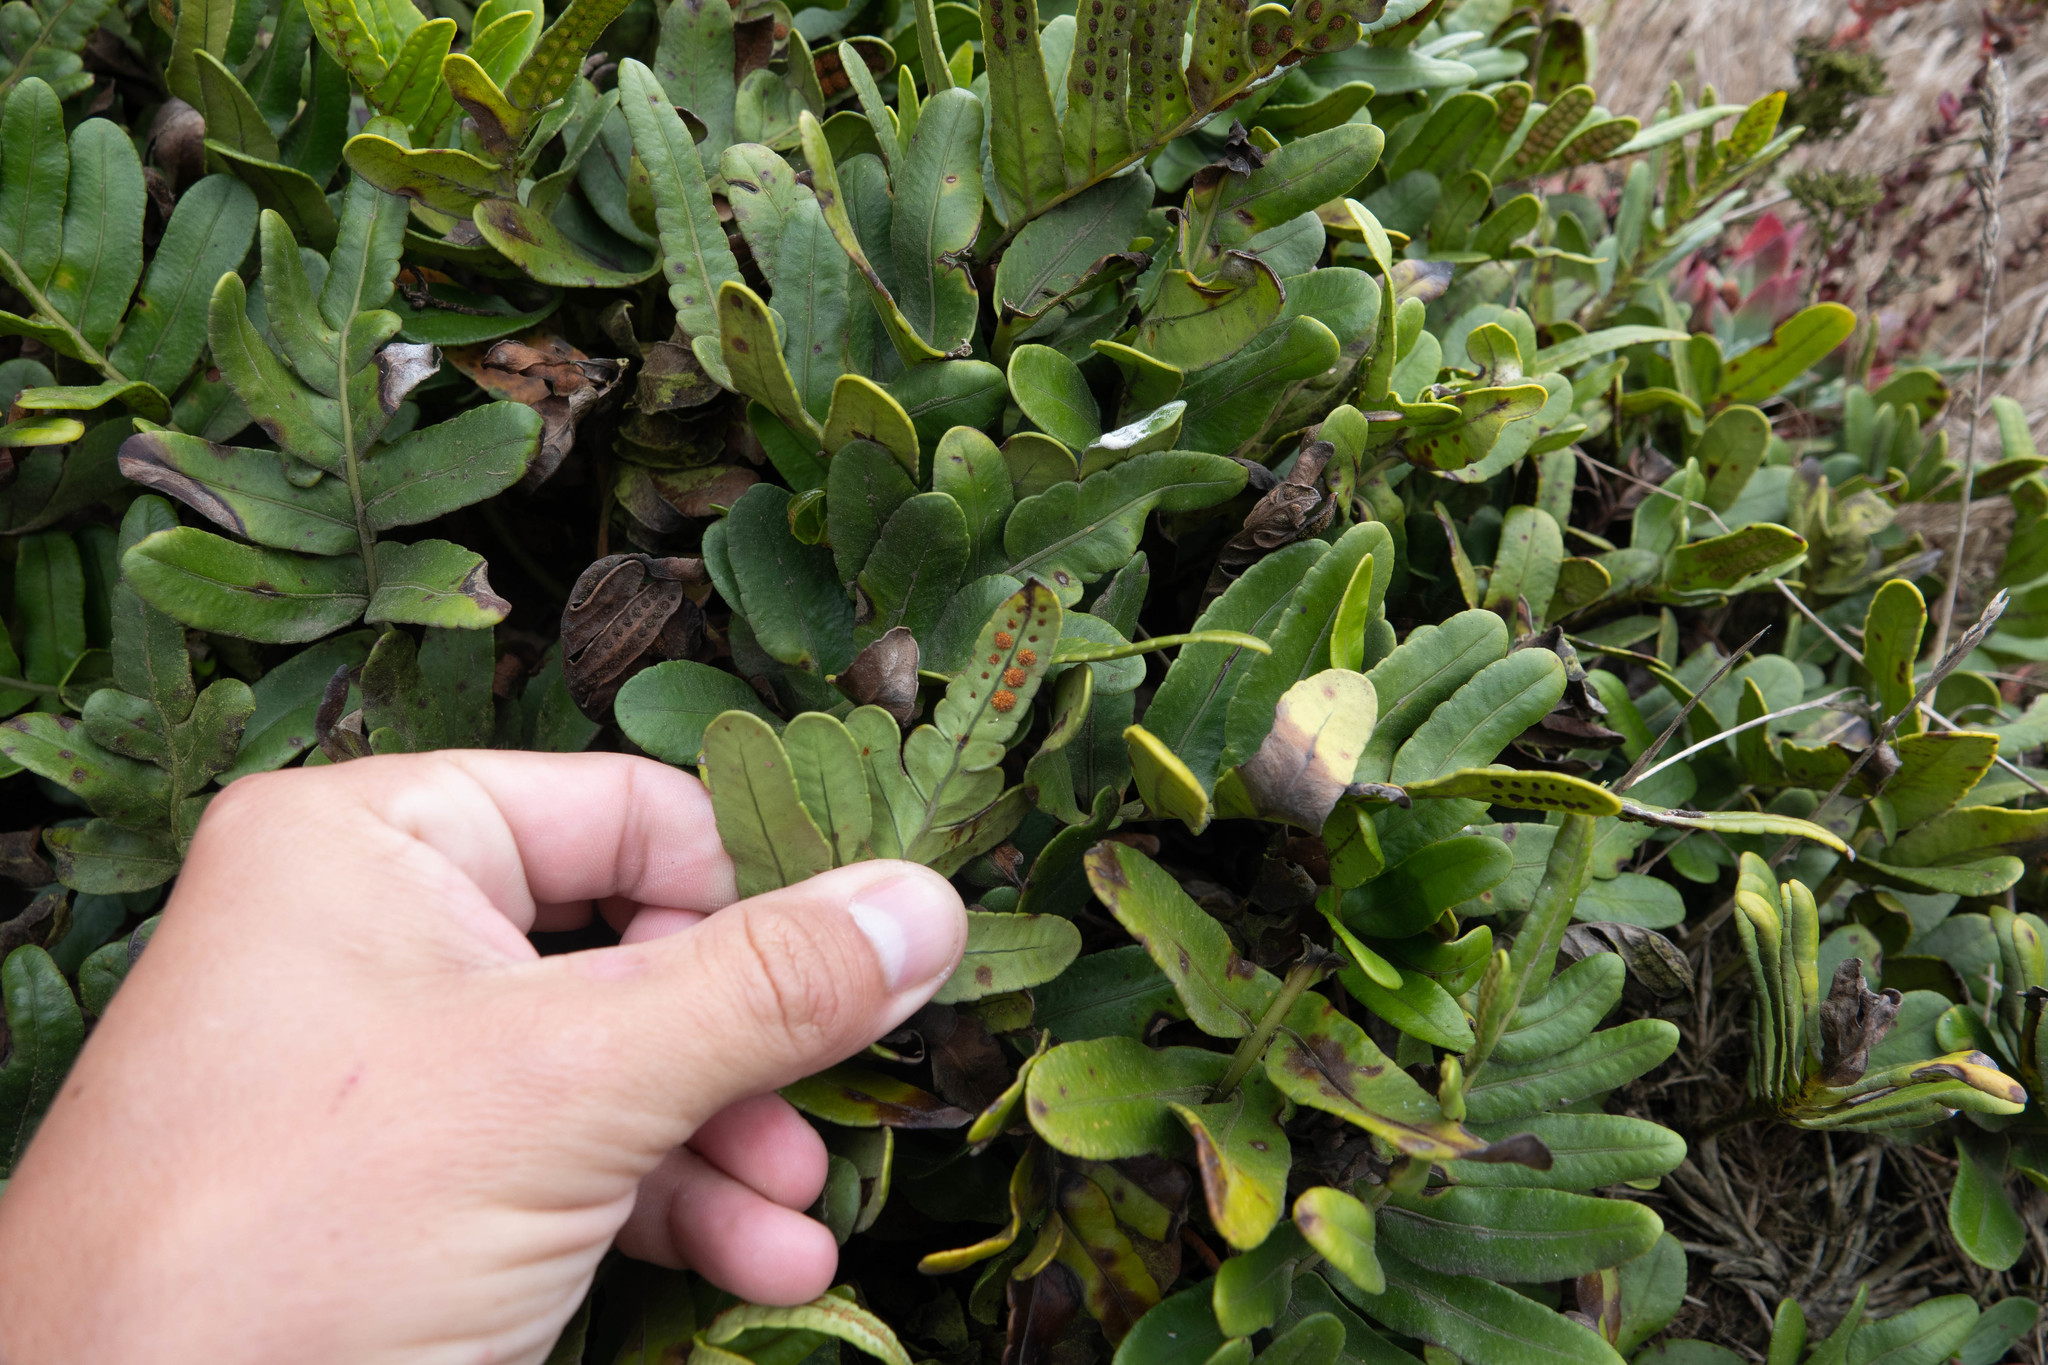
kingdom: Plantae
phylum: Tracheophyta
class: Polypodiopsida
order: Polypodiales
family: Polypodiaceae
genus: Polypodium
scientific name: Polypodium scouleri
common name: Scouler's polypody
